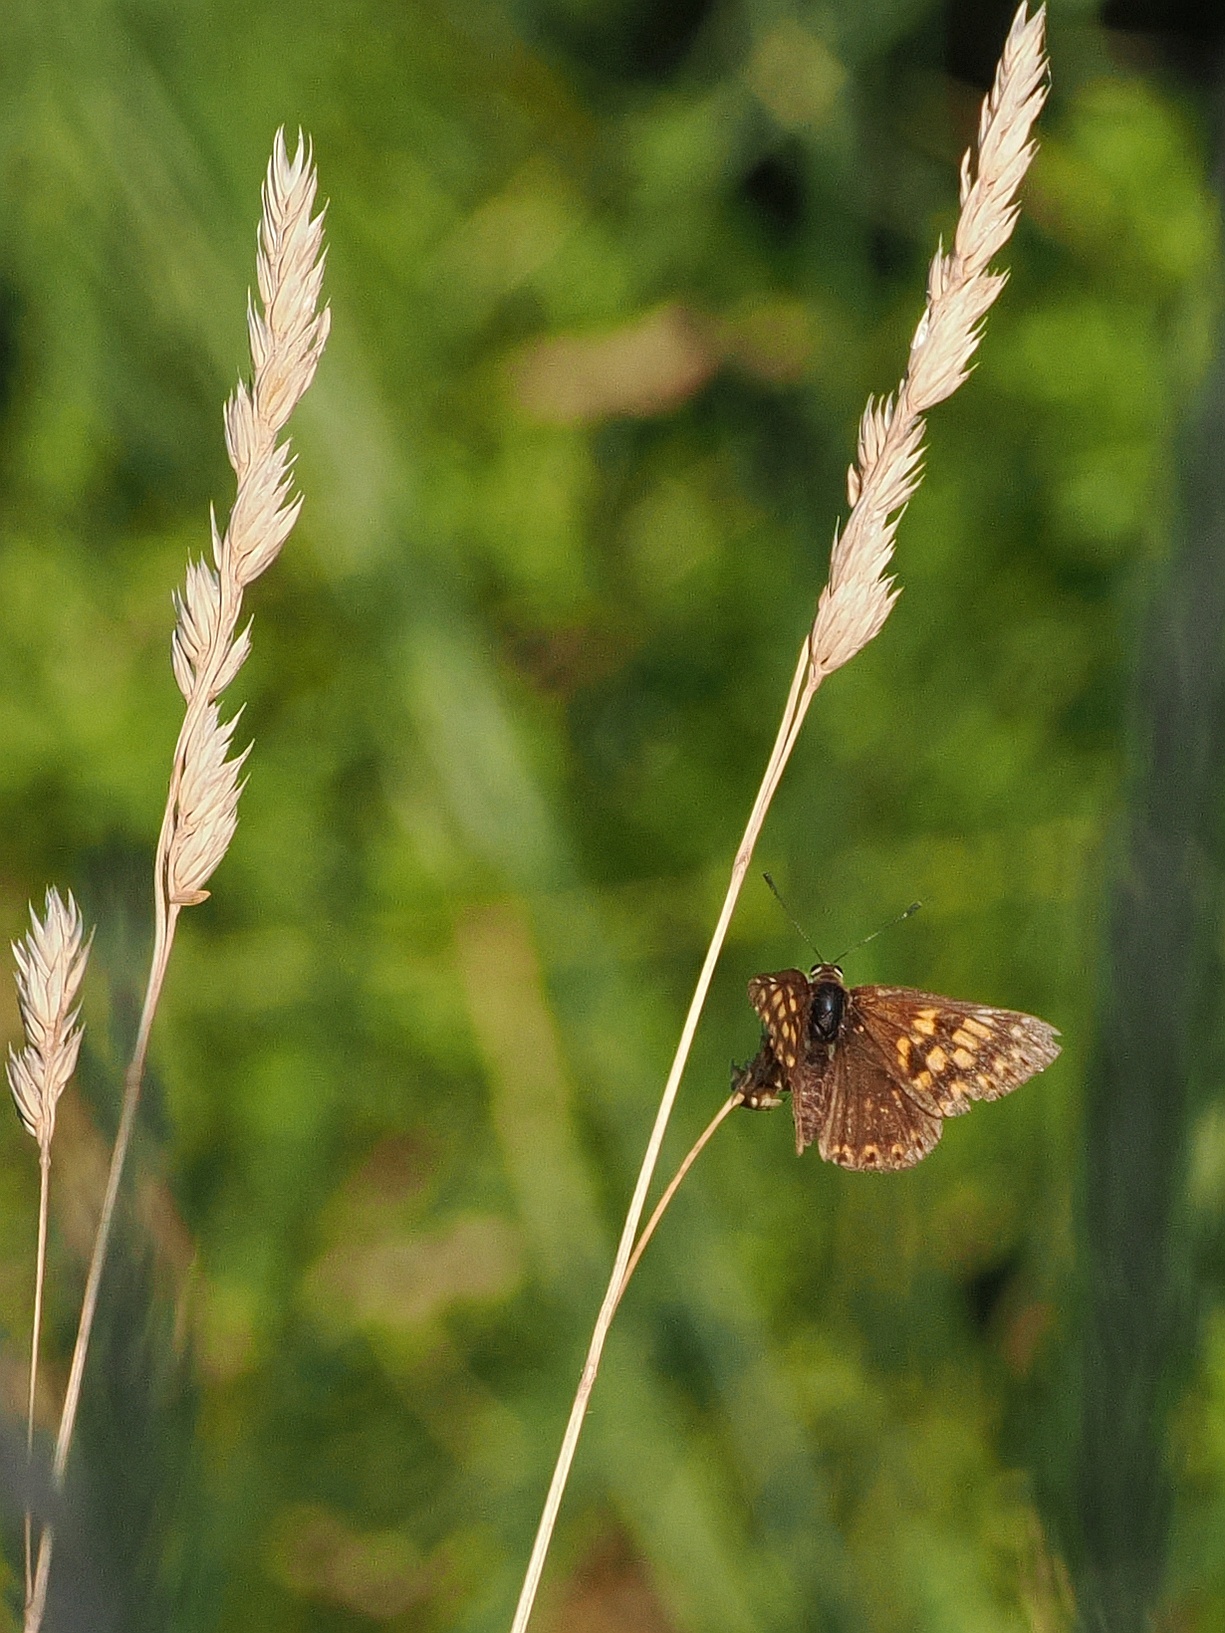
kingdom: Animalia
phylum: Arthropoda
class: Insecta
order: Lepidoptera
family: Riodinidae
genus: Hamearis
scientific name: Hamearis lucina
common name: Duke of burgundy fritillary
